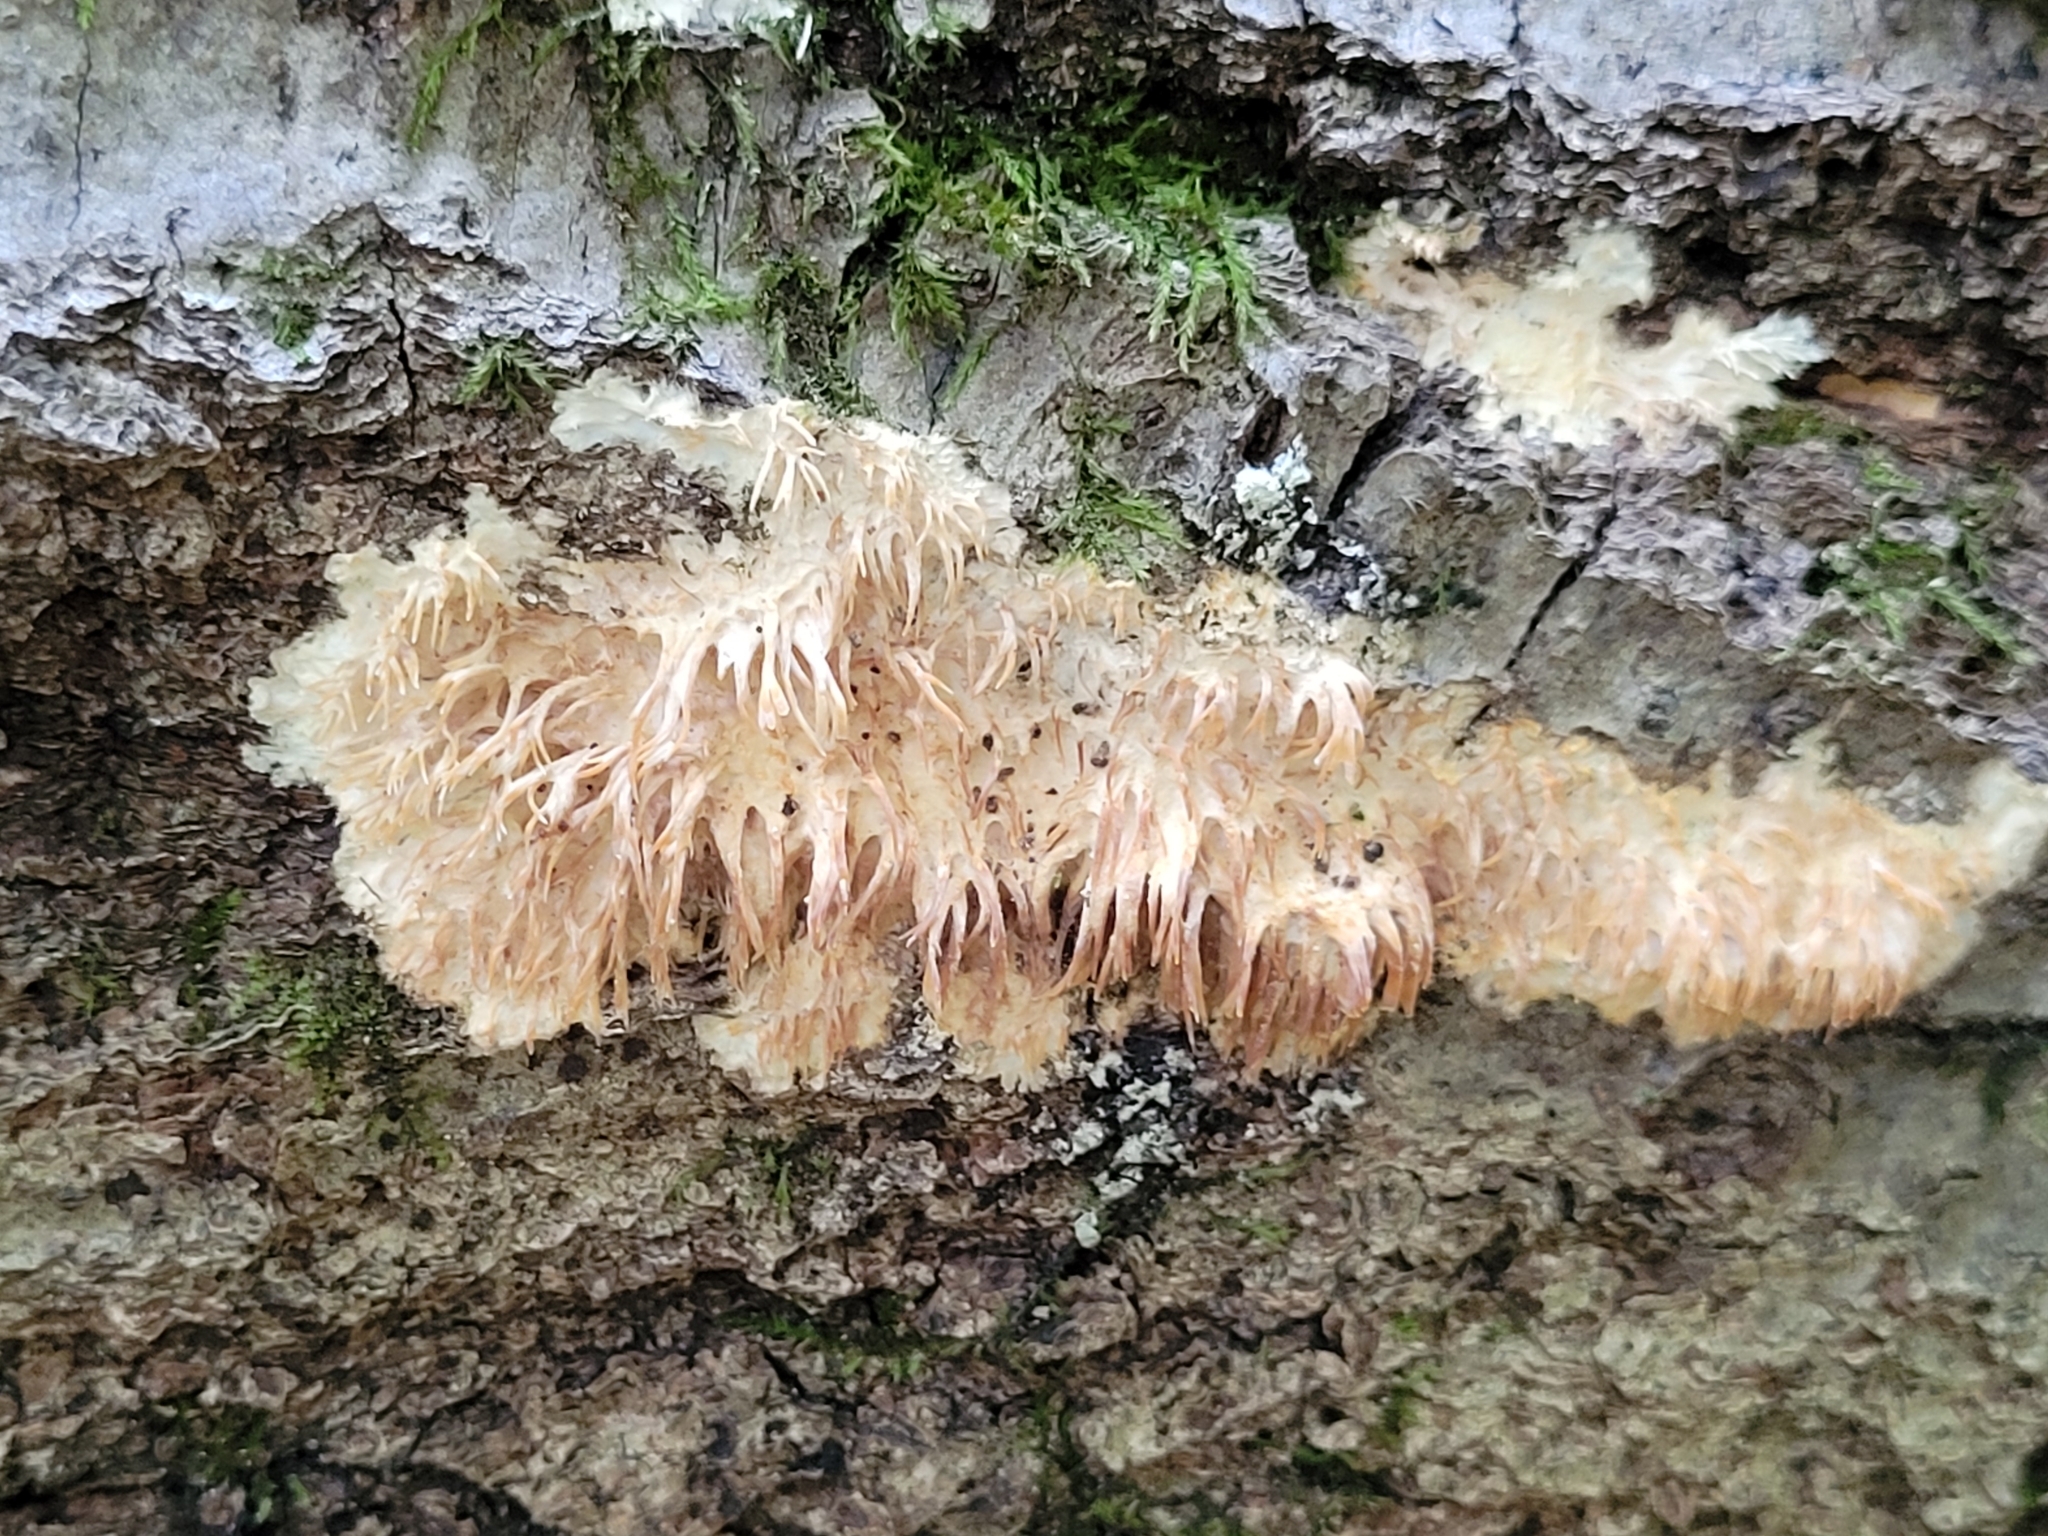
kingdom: Fungi
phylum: Basidiomycota
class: Agaricomycetes
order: Agaricales
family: Radulomycetaceae
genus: Radulomyces
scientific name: Radulomyces copelandii
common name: Asian beauty
